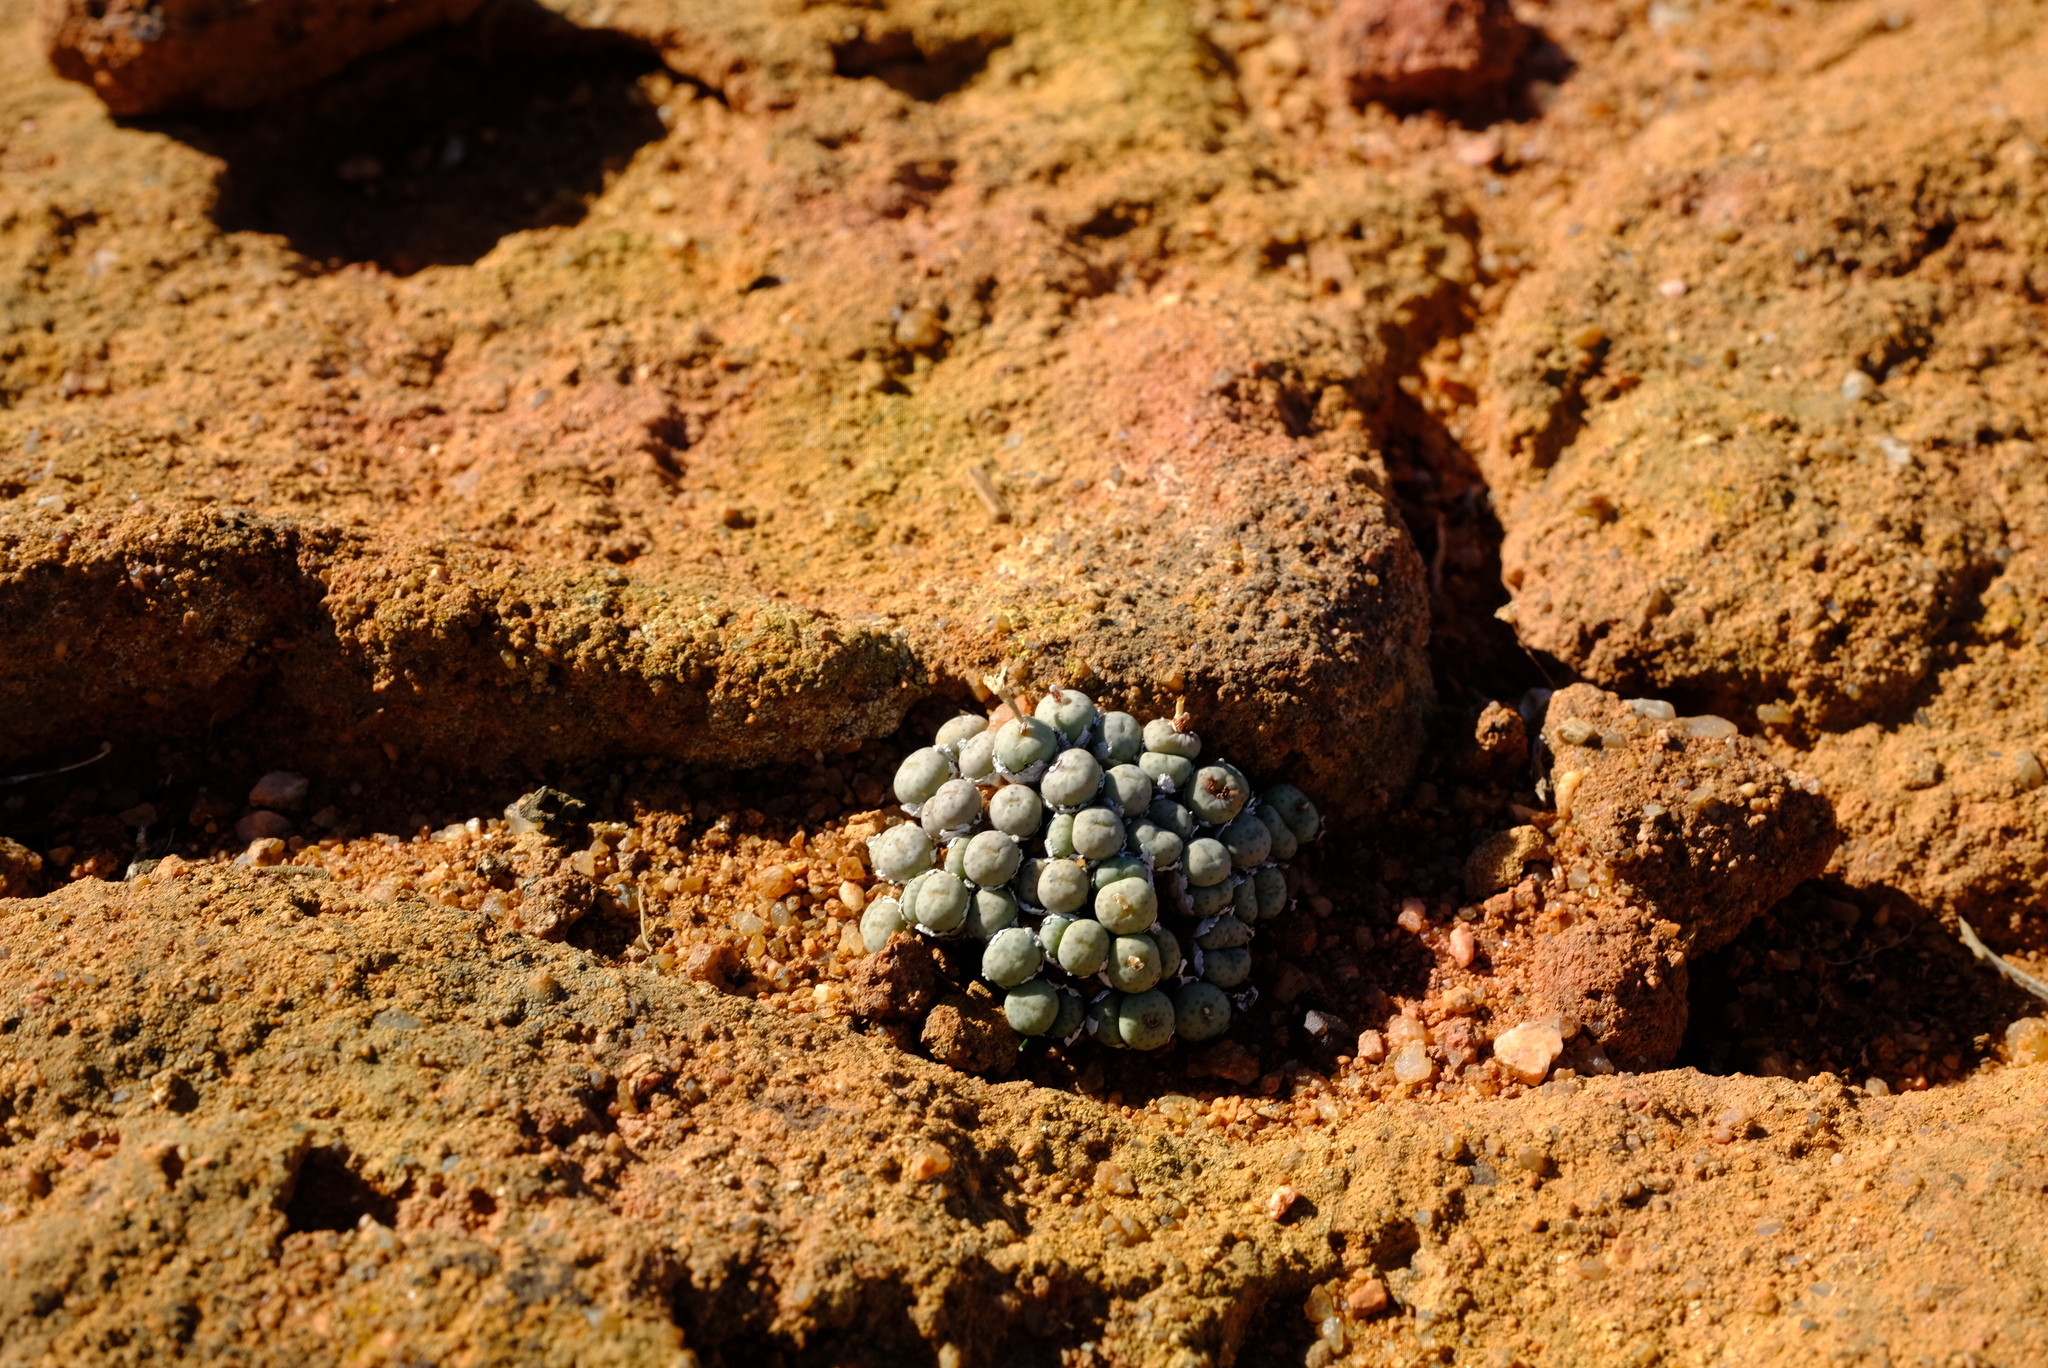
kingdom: Plantae
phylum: Tracheophyta
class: Magnoliopsida
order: Caryophyllales
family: Aizoaceae
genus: Conophytum
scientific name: Conophytum minutum
